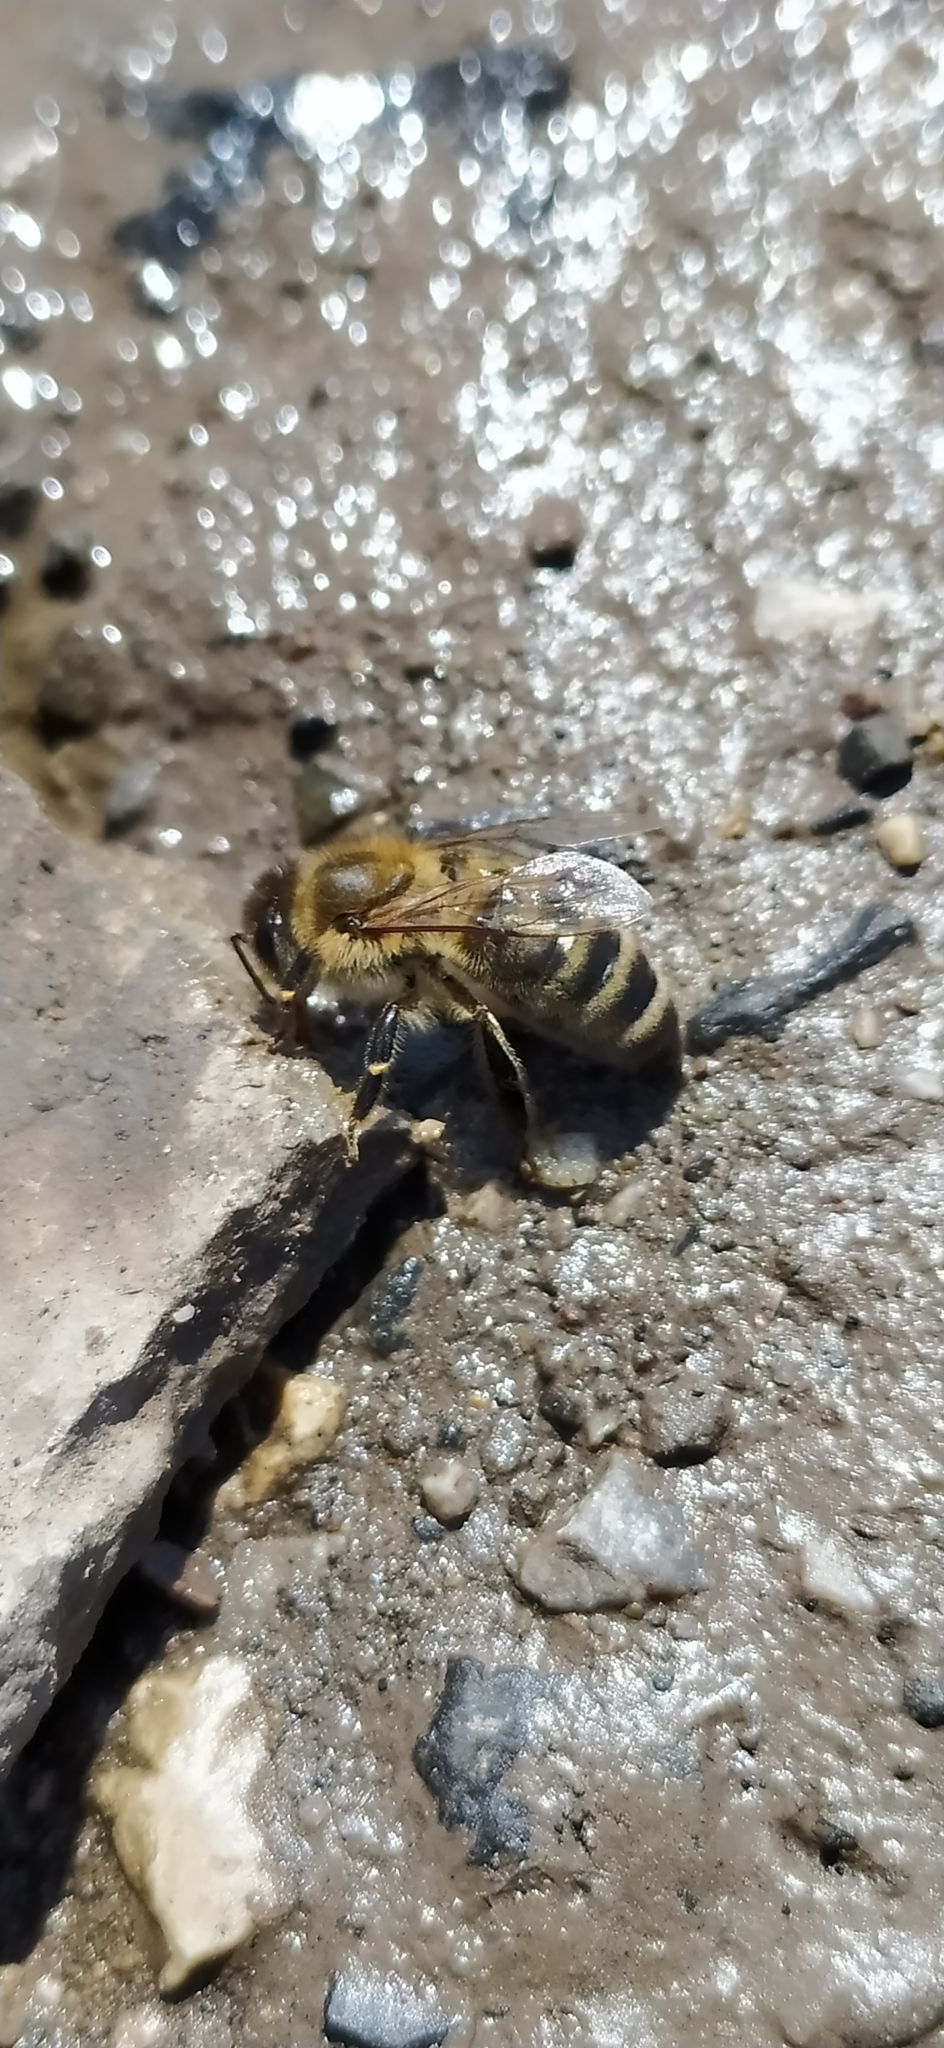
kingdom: Animalia
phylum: Arthropoda
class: Insecta
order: Hymenoptera
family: Apidae
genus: Apis
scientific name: Apis mellifera
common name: Honey bee
